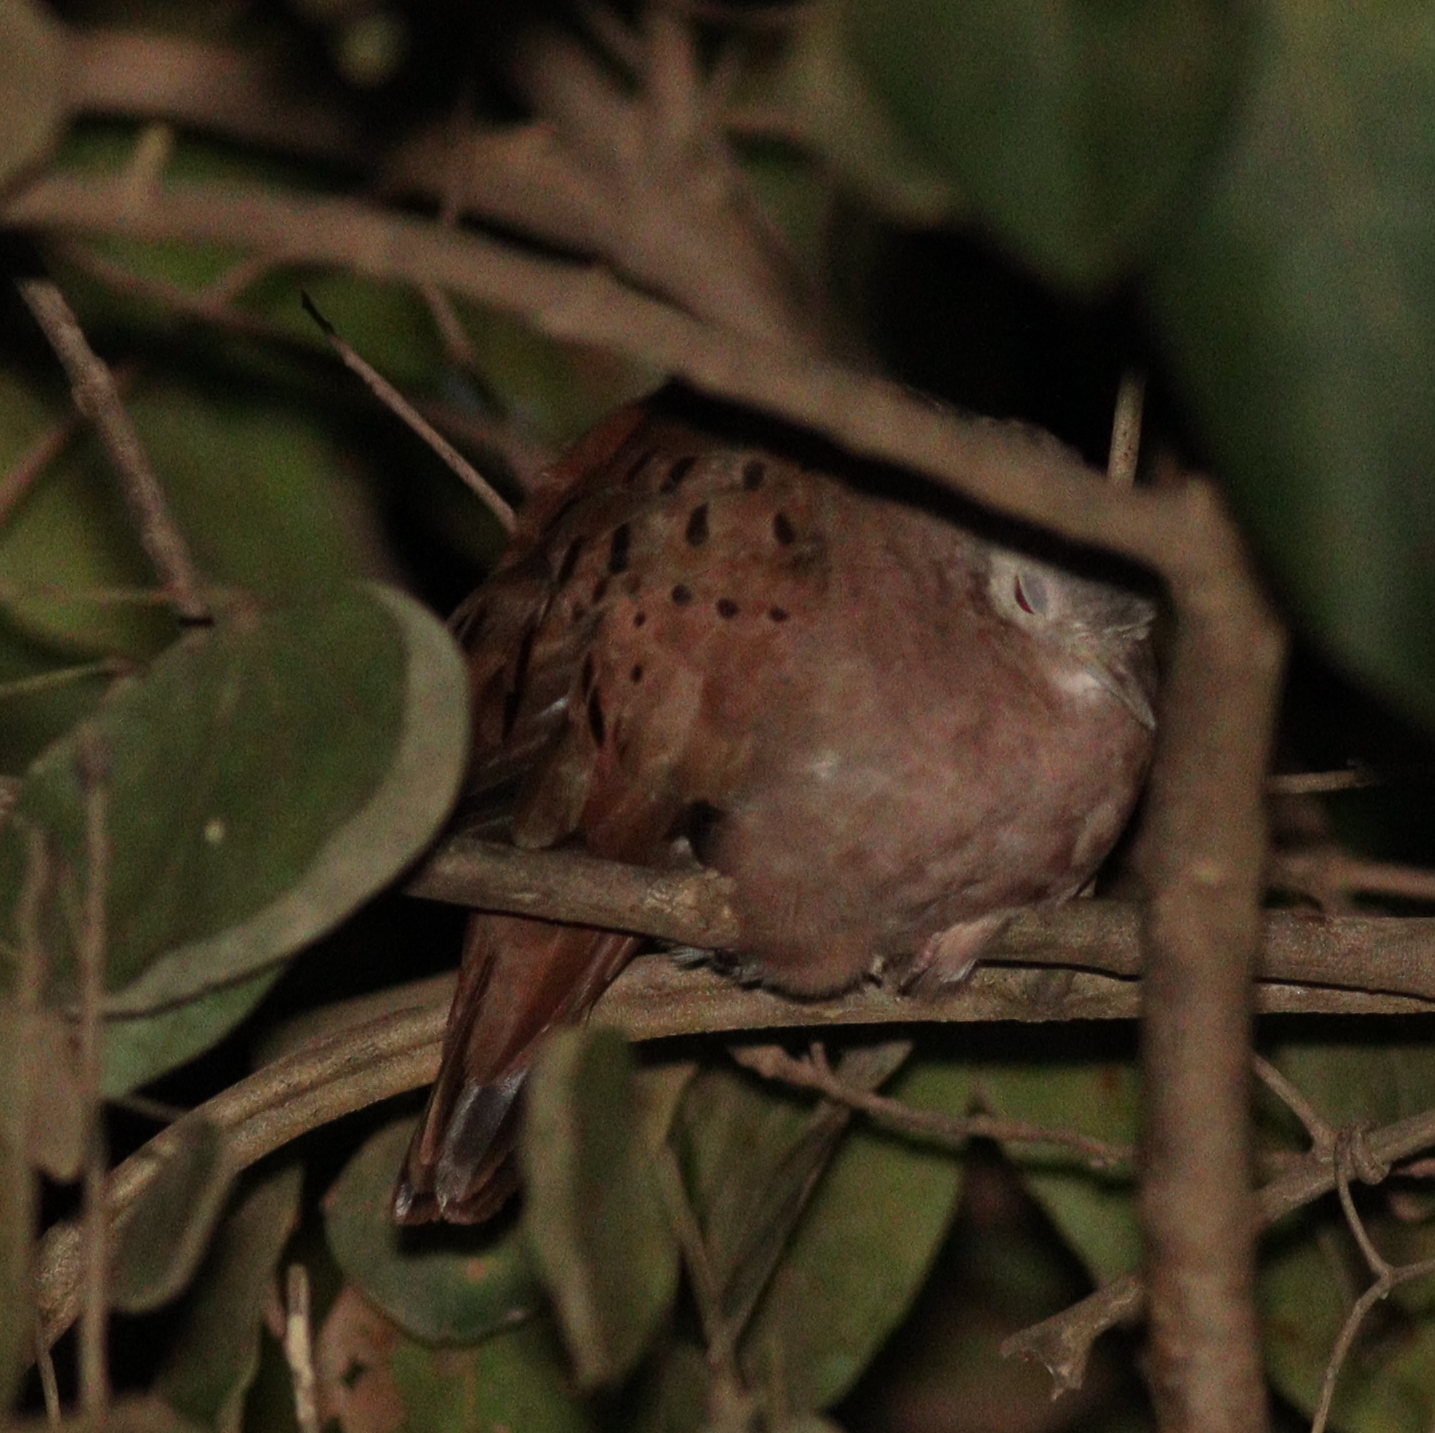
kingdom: Animalia
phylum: Chordata
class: Aves
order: Columbiformes
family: Columbidae
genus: Columbina
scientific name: Columbina talpacoti
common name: Ruddy ground dove
